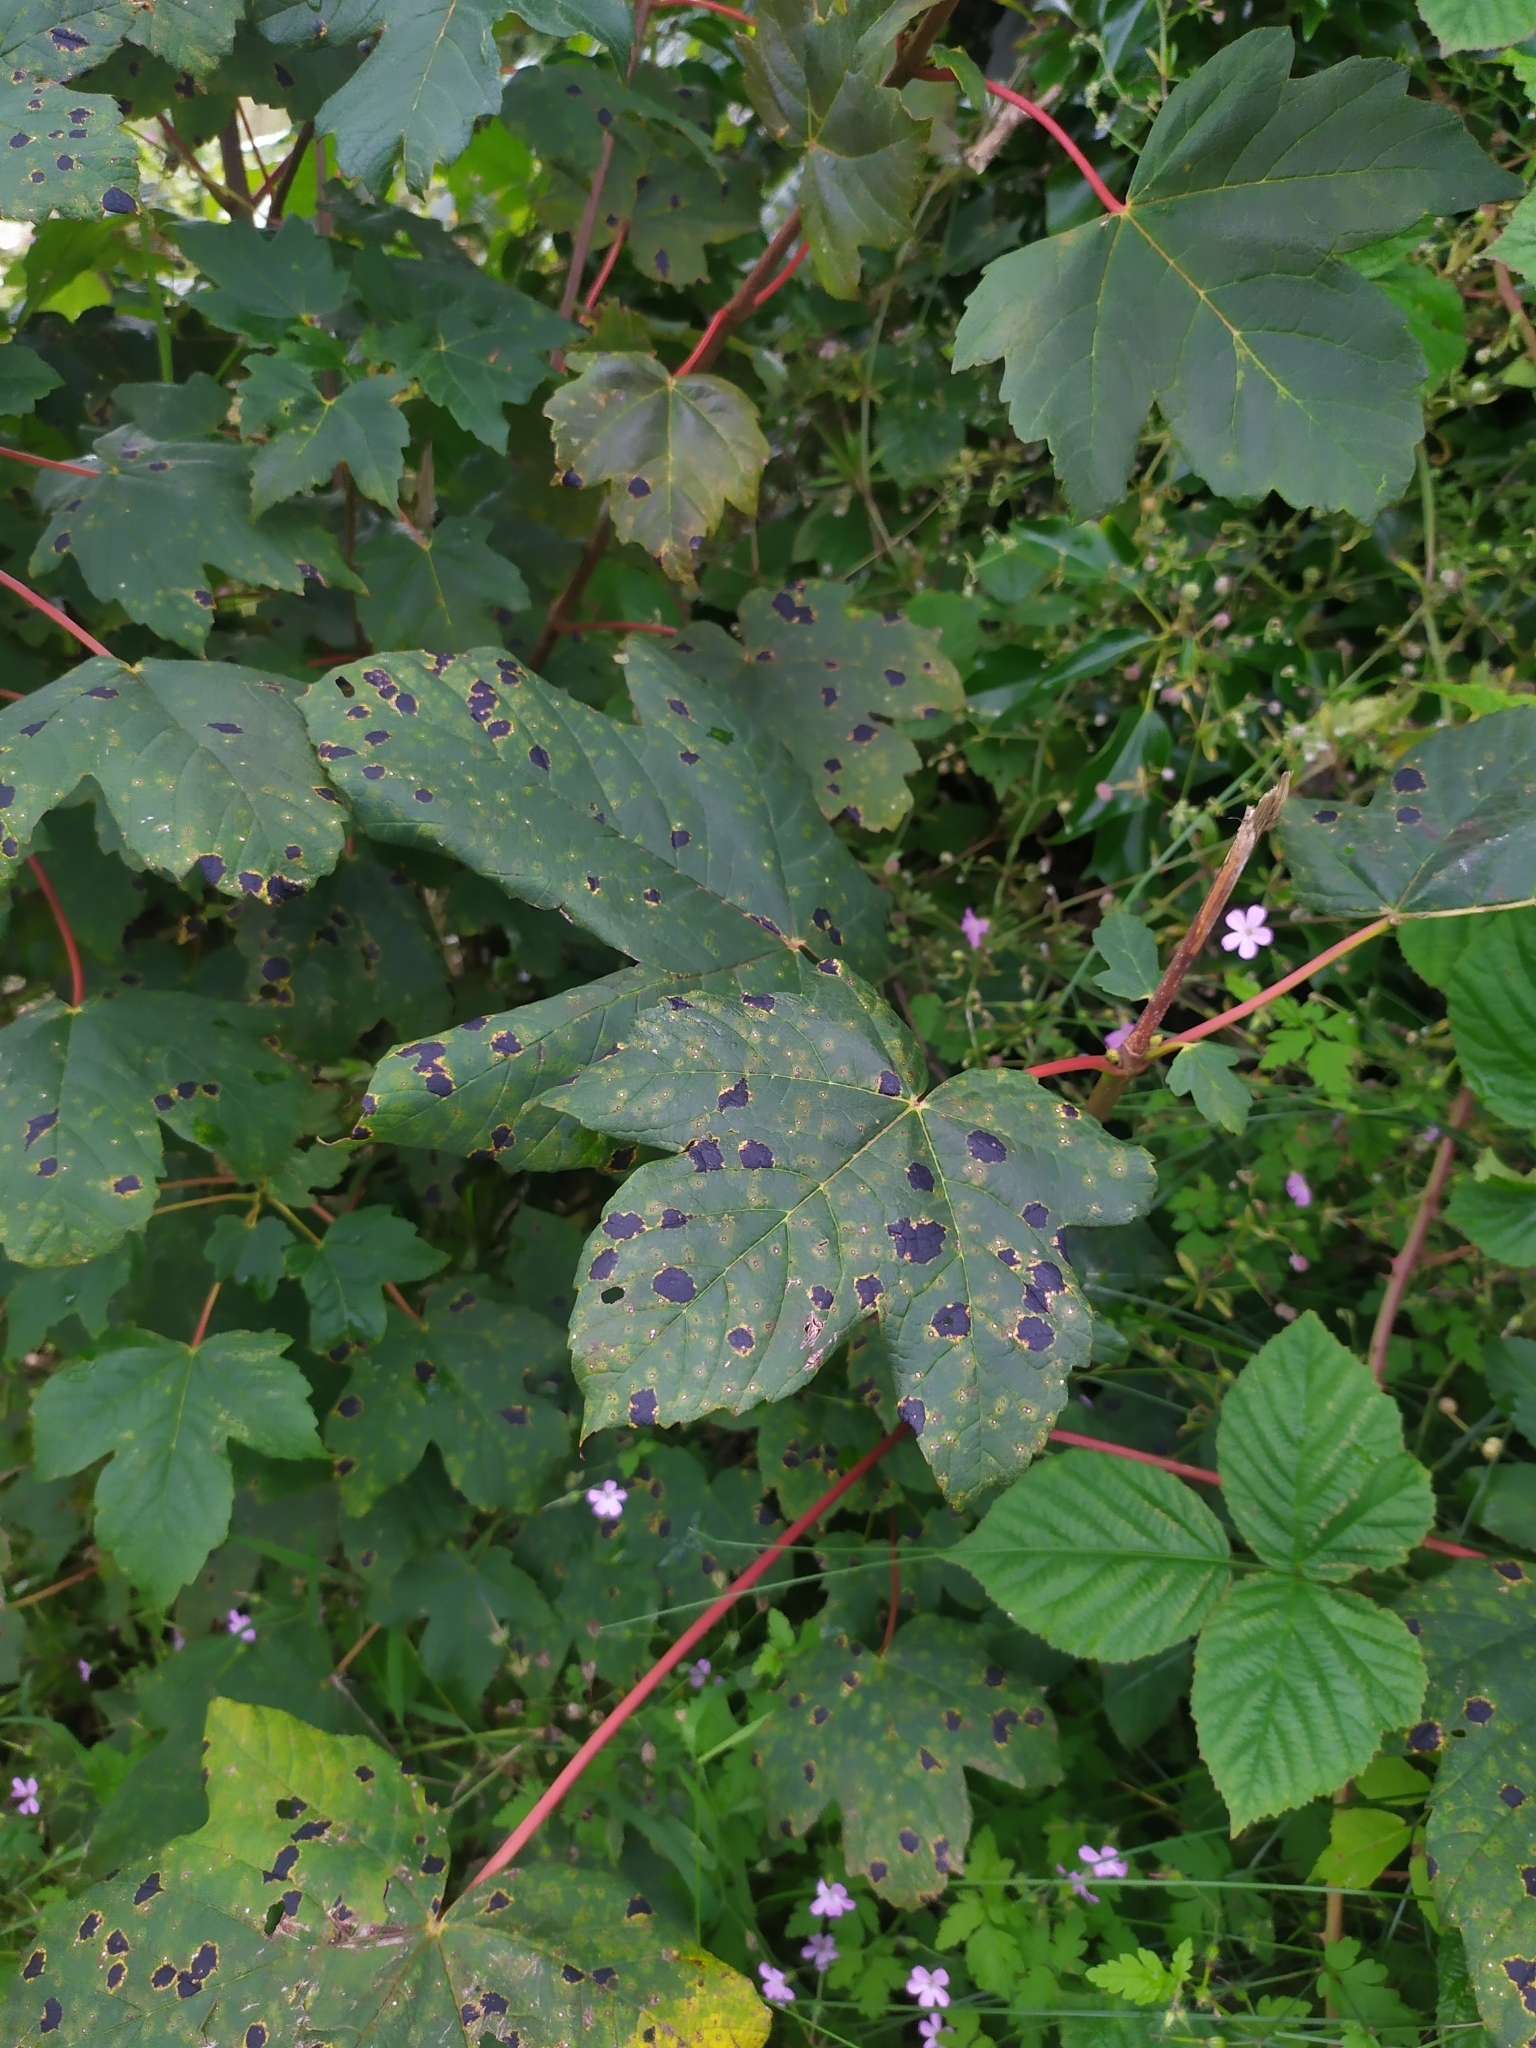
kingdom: Fungi
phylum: Ascomycota
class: Leotiomycetes
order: Rhytismatales
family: Rhytismataceae
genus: Rhytisma
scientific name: Rhytisma acerinum
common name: European tar spot
